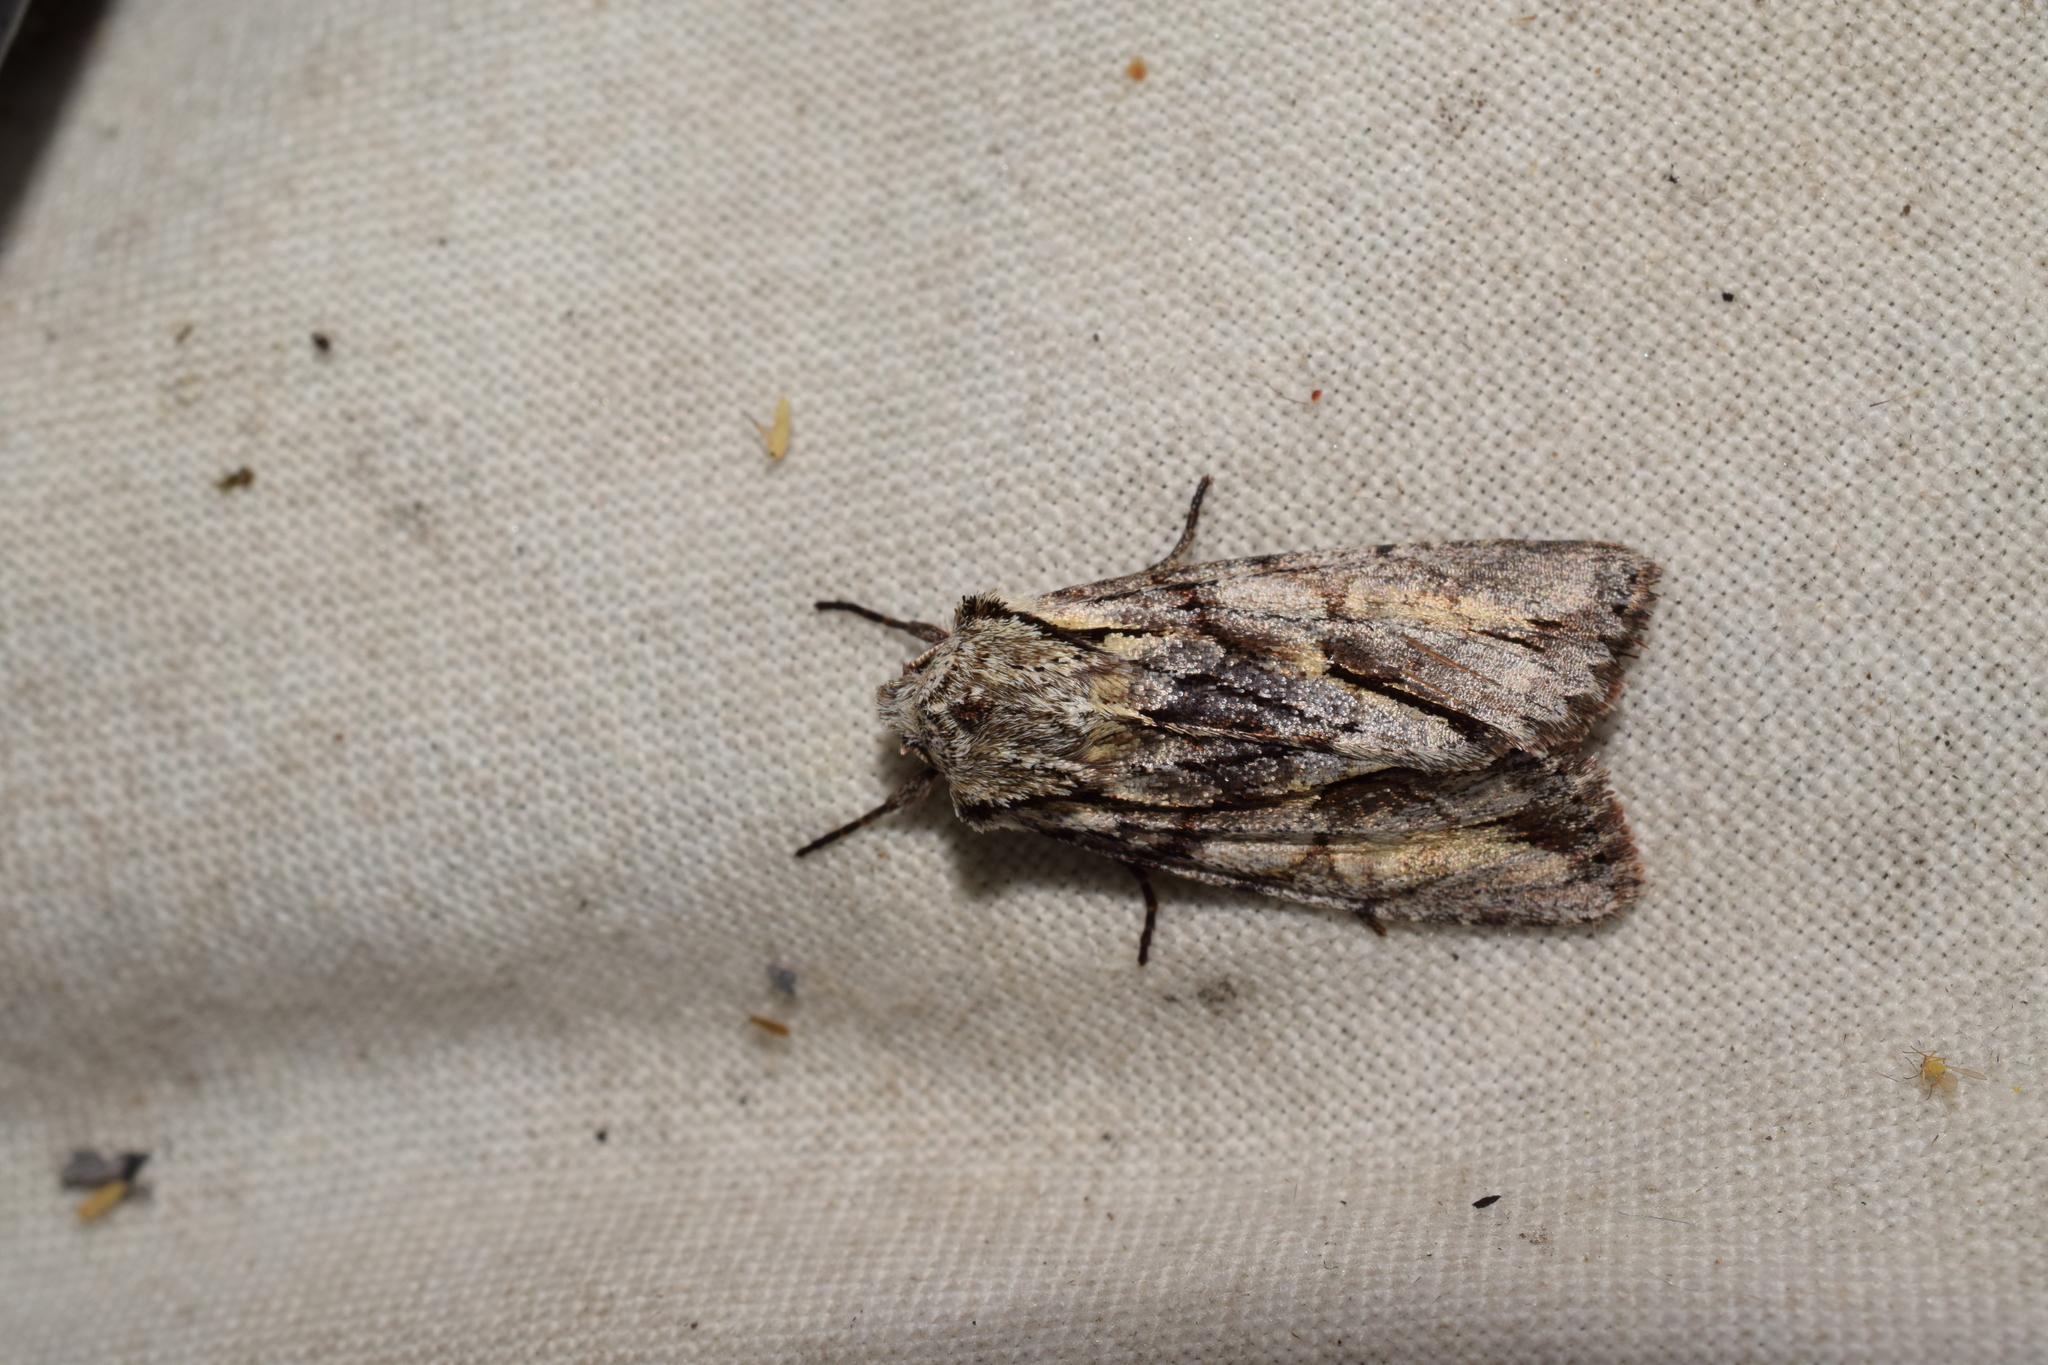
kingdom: Animalia
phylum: Arthropoda
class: Insecta
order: Lepidoptera
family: Noctuidae
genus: Egira
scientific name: Egira saxea
